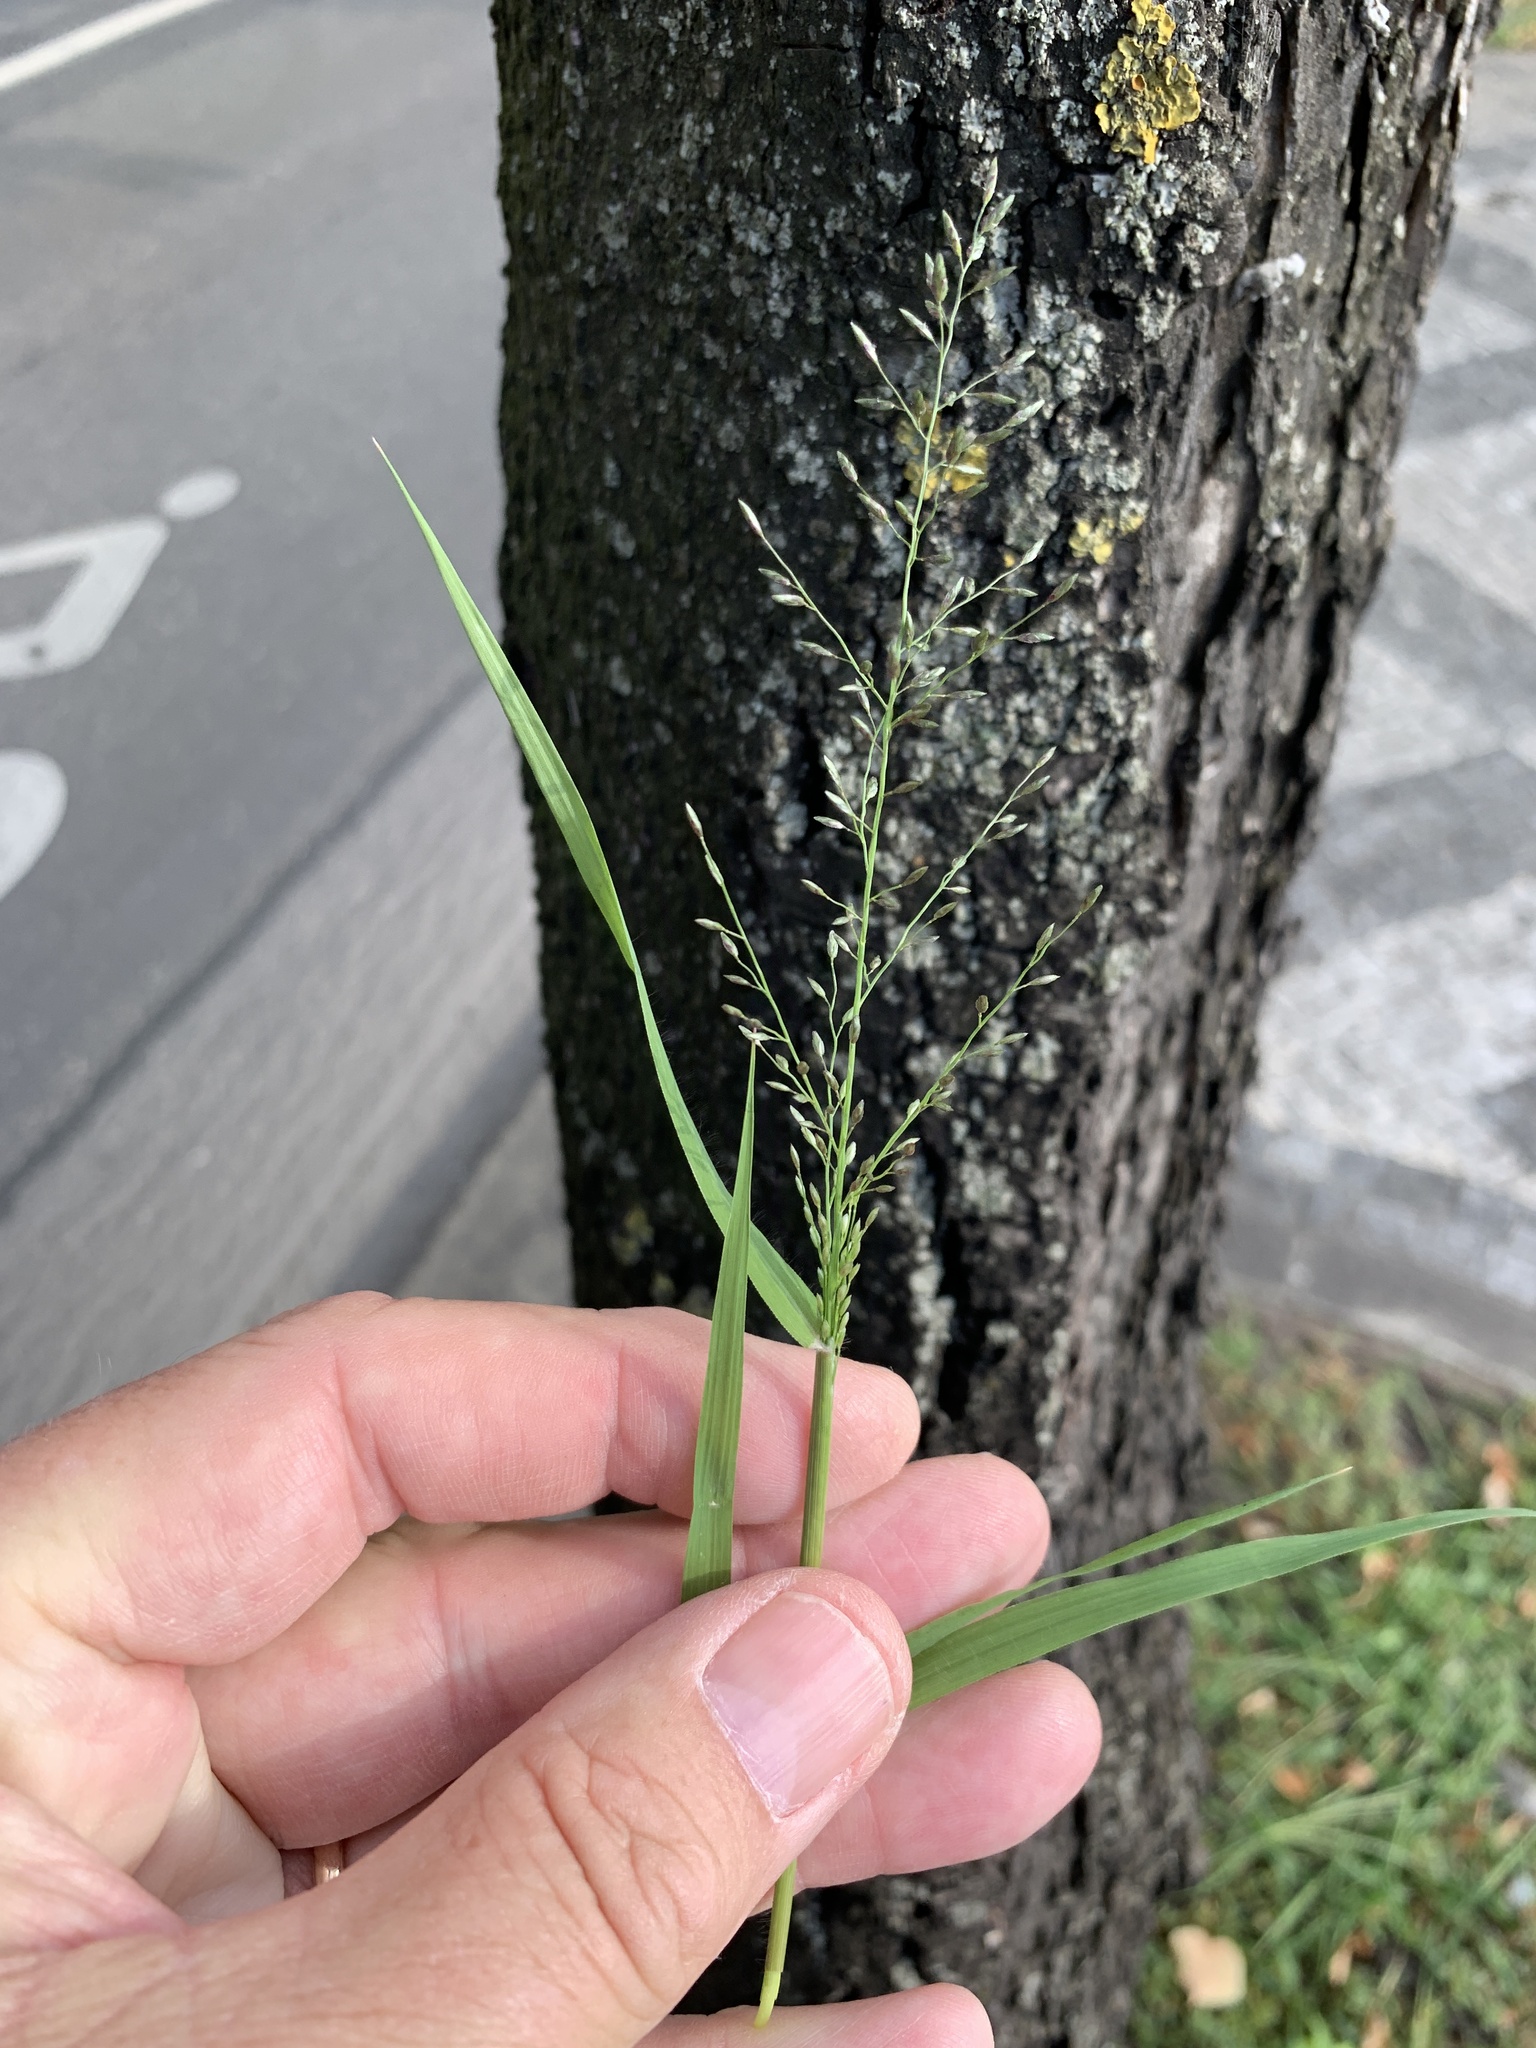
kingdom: Plantae
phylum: Tracheophyta
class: Liliopsida
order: Poales
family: Poaceae
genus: Eragrostis
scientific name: Eragrostis minor
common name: Small love-grass
